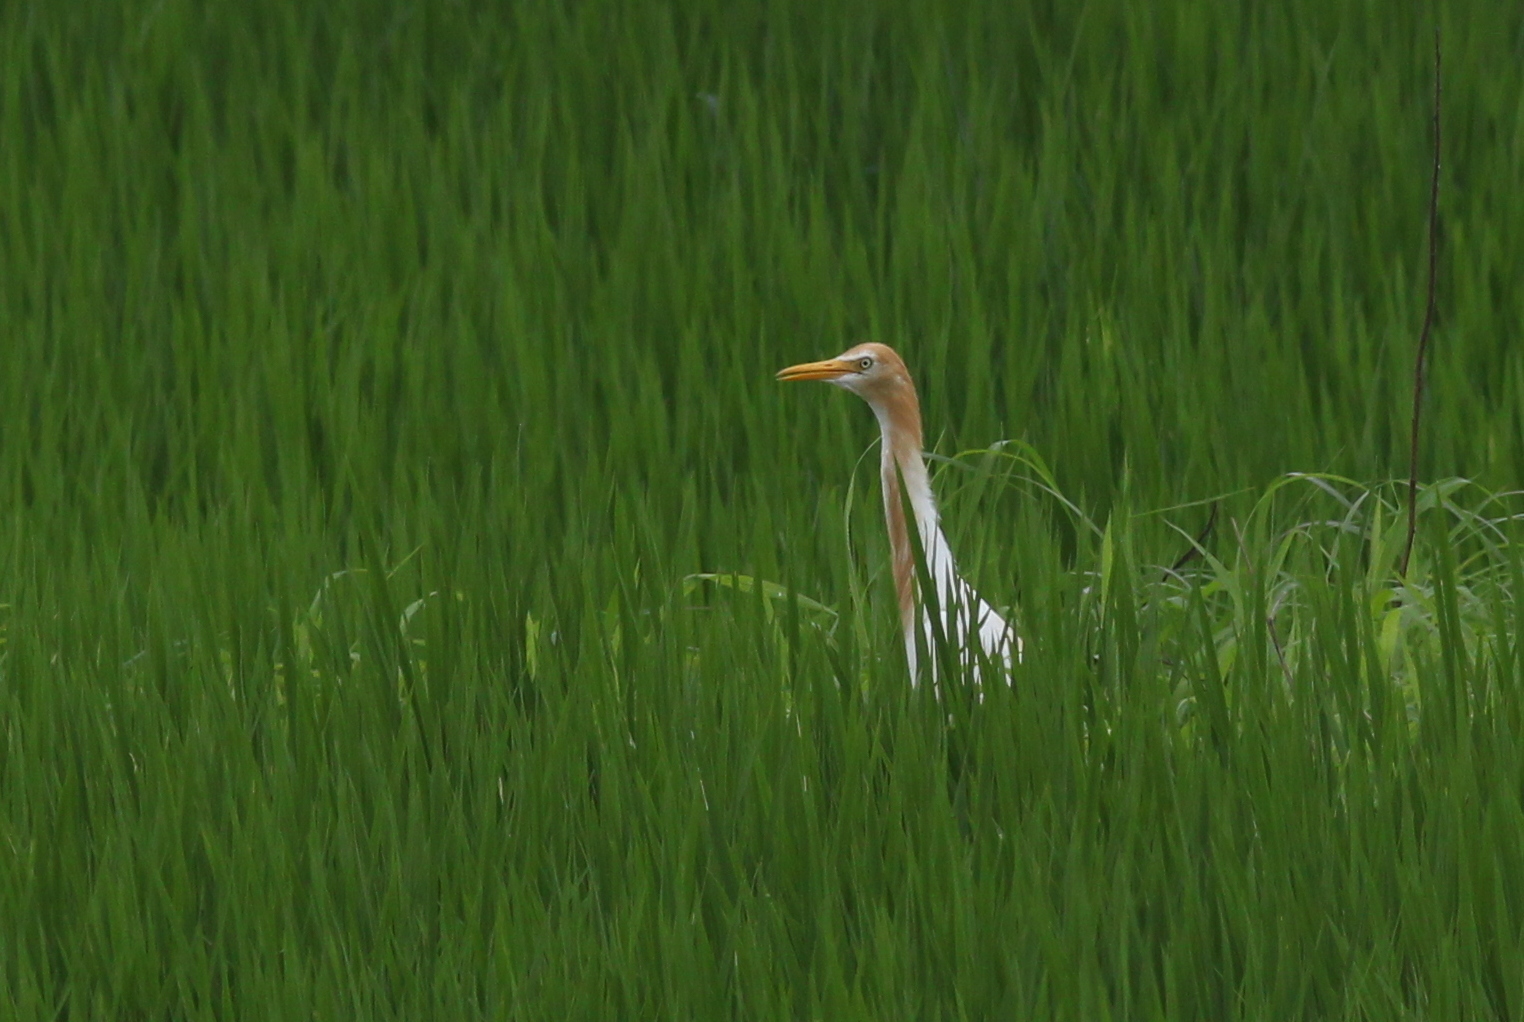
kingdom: Animalia
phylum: Chordata
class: Aves
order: Pelecaniformes
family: Ardeidae
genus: Bubulcus
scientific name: Bubulcus coromandus
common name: Eastern cattle egret
